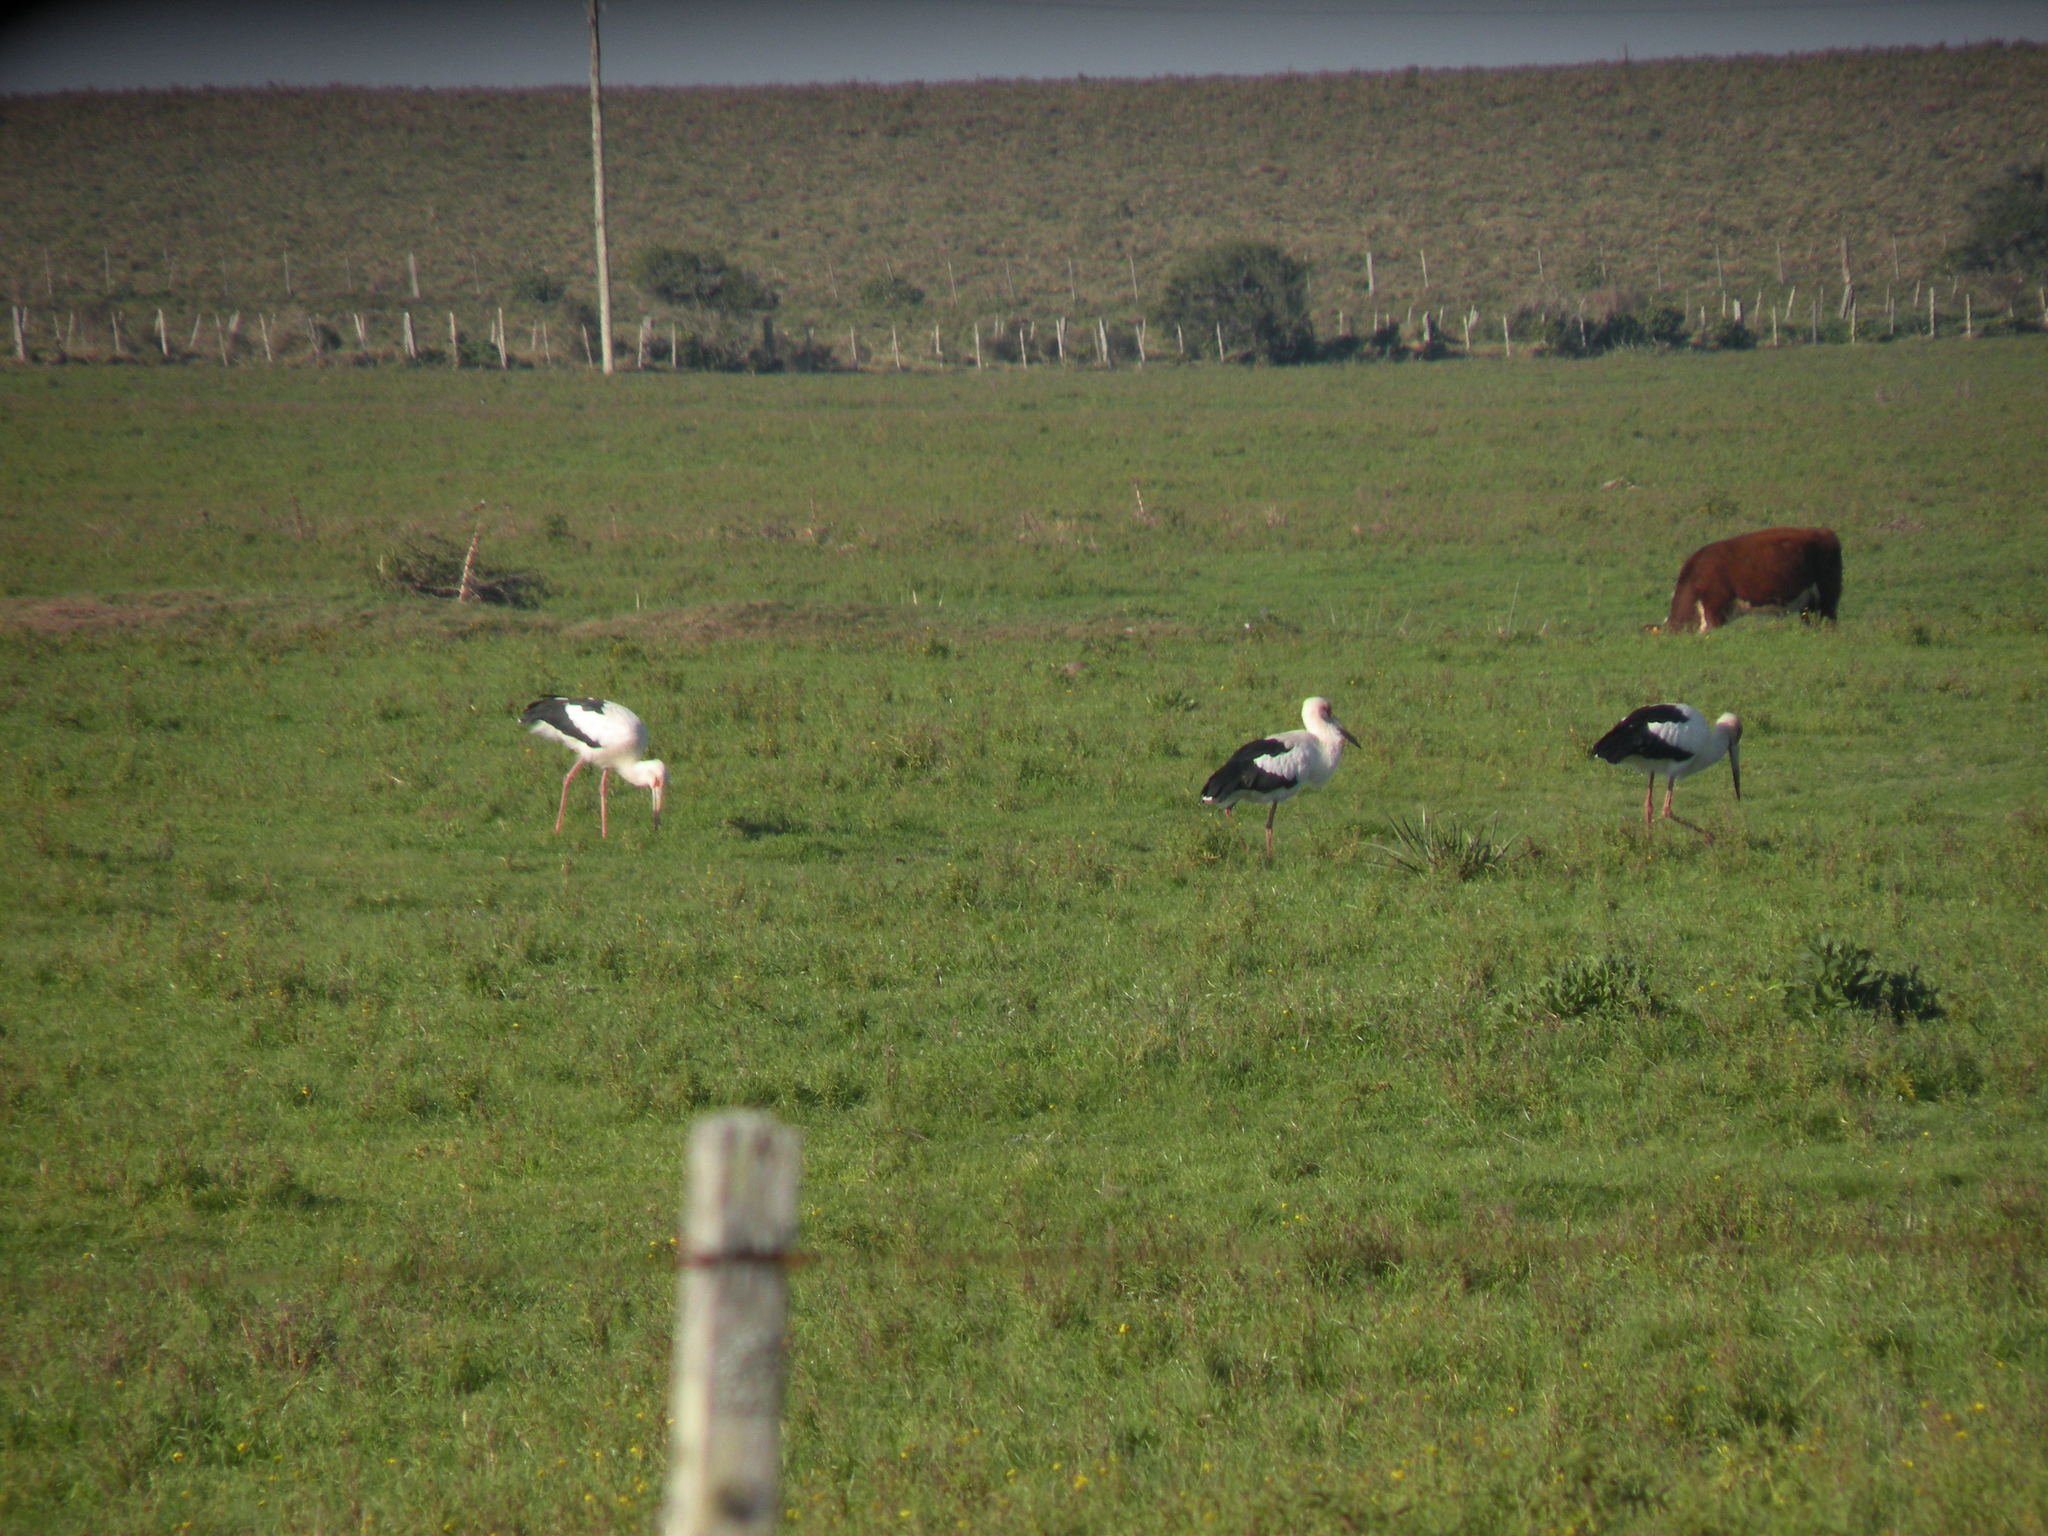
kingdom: Animalia
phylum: Chordata
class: Aves
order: Ciconiiformes
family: Ciconiidae
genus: Ciconia
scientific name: Ciconia maguari
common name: Maguari stork
